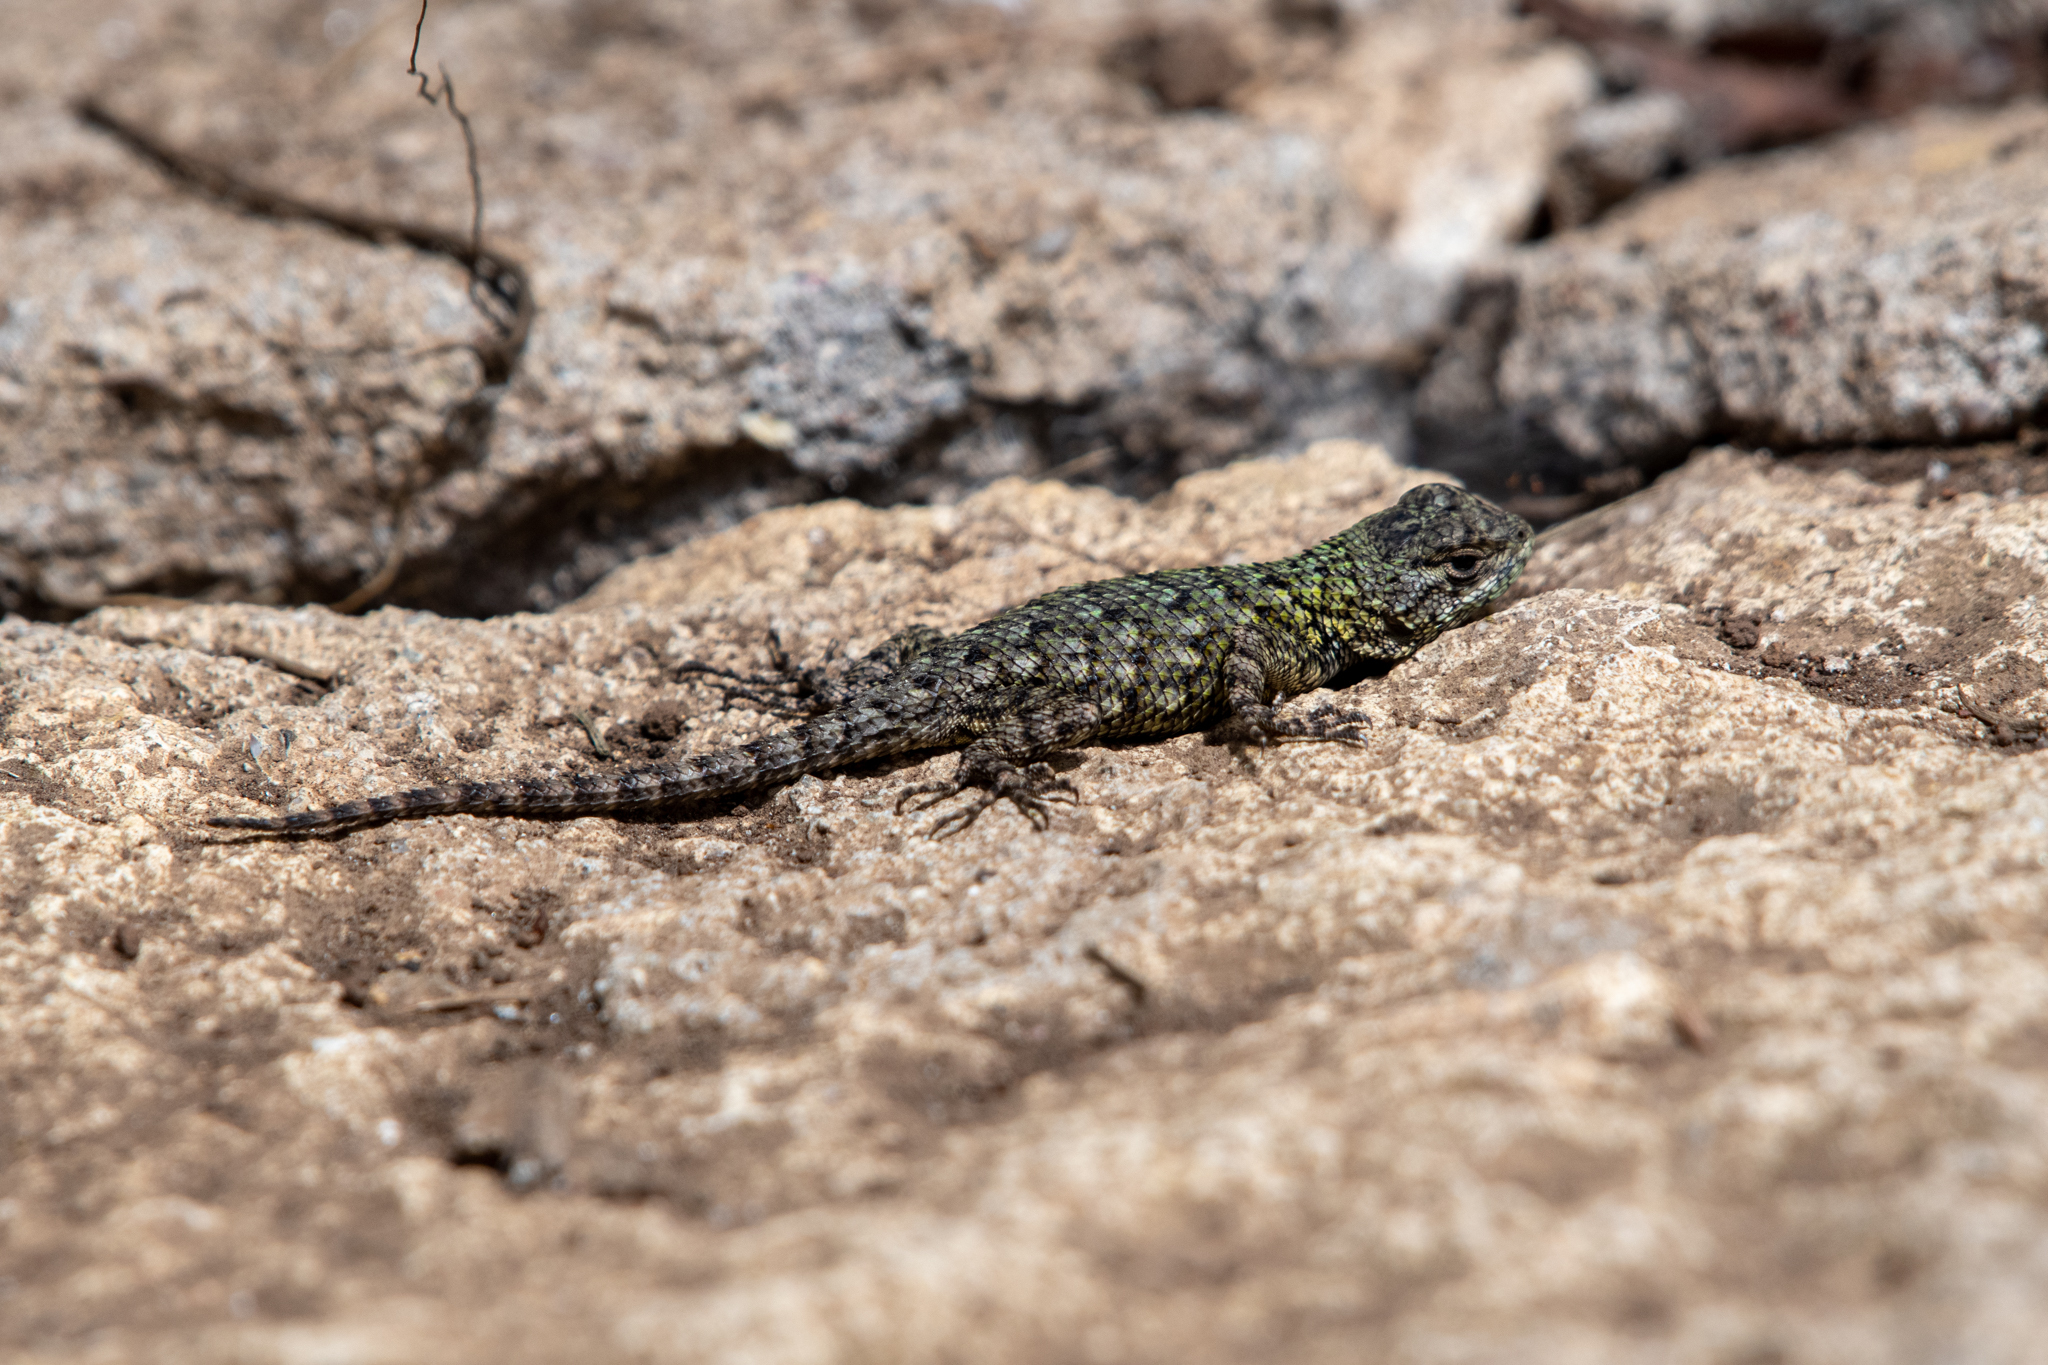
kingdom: Animalia
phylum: Chordata
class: Squamata
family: Phrynosomatidae
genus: Sceloporus
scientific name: Sceloporus hondurensis
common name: Honduran spiny lizard
